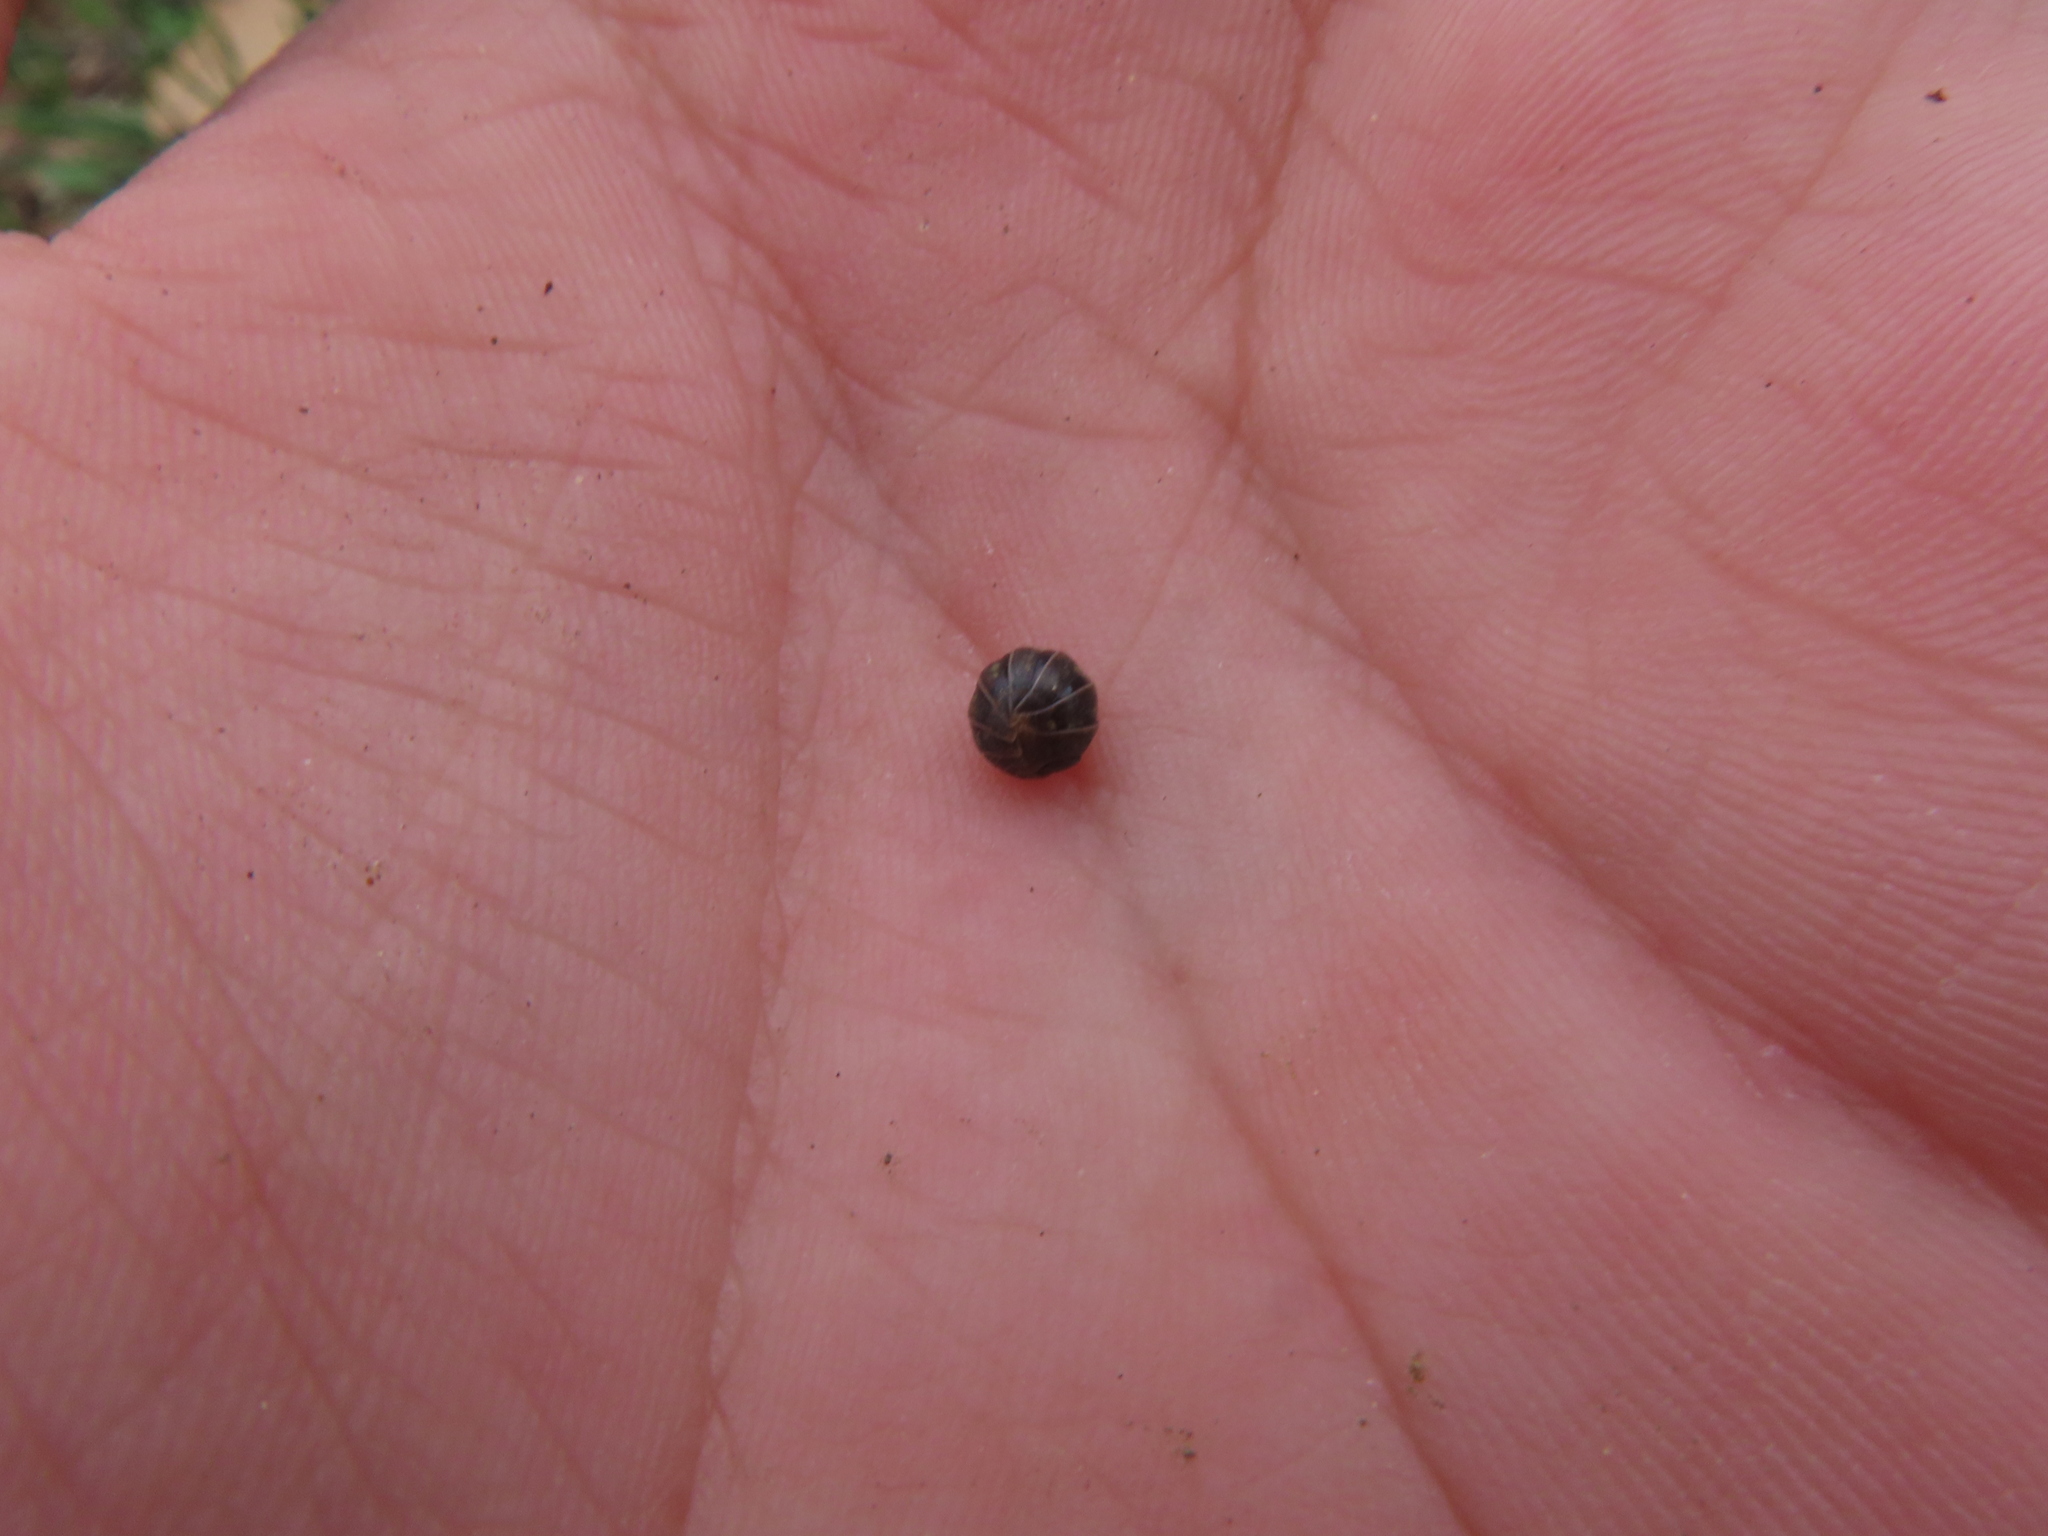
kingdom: Animalia
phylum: Arthropoda
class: Malacostraca
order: Isopoda
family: Armadillidiidae
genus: Armadillidium
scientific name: Armadillidium vulgare
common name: Common pill woodlouse
